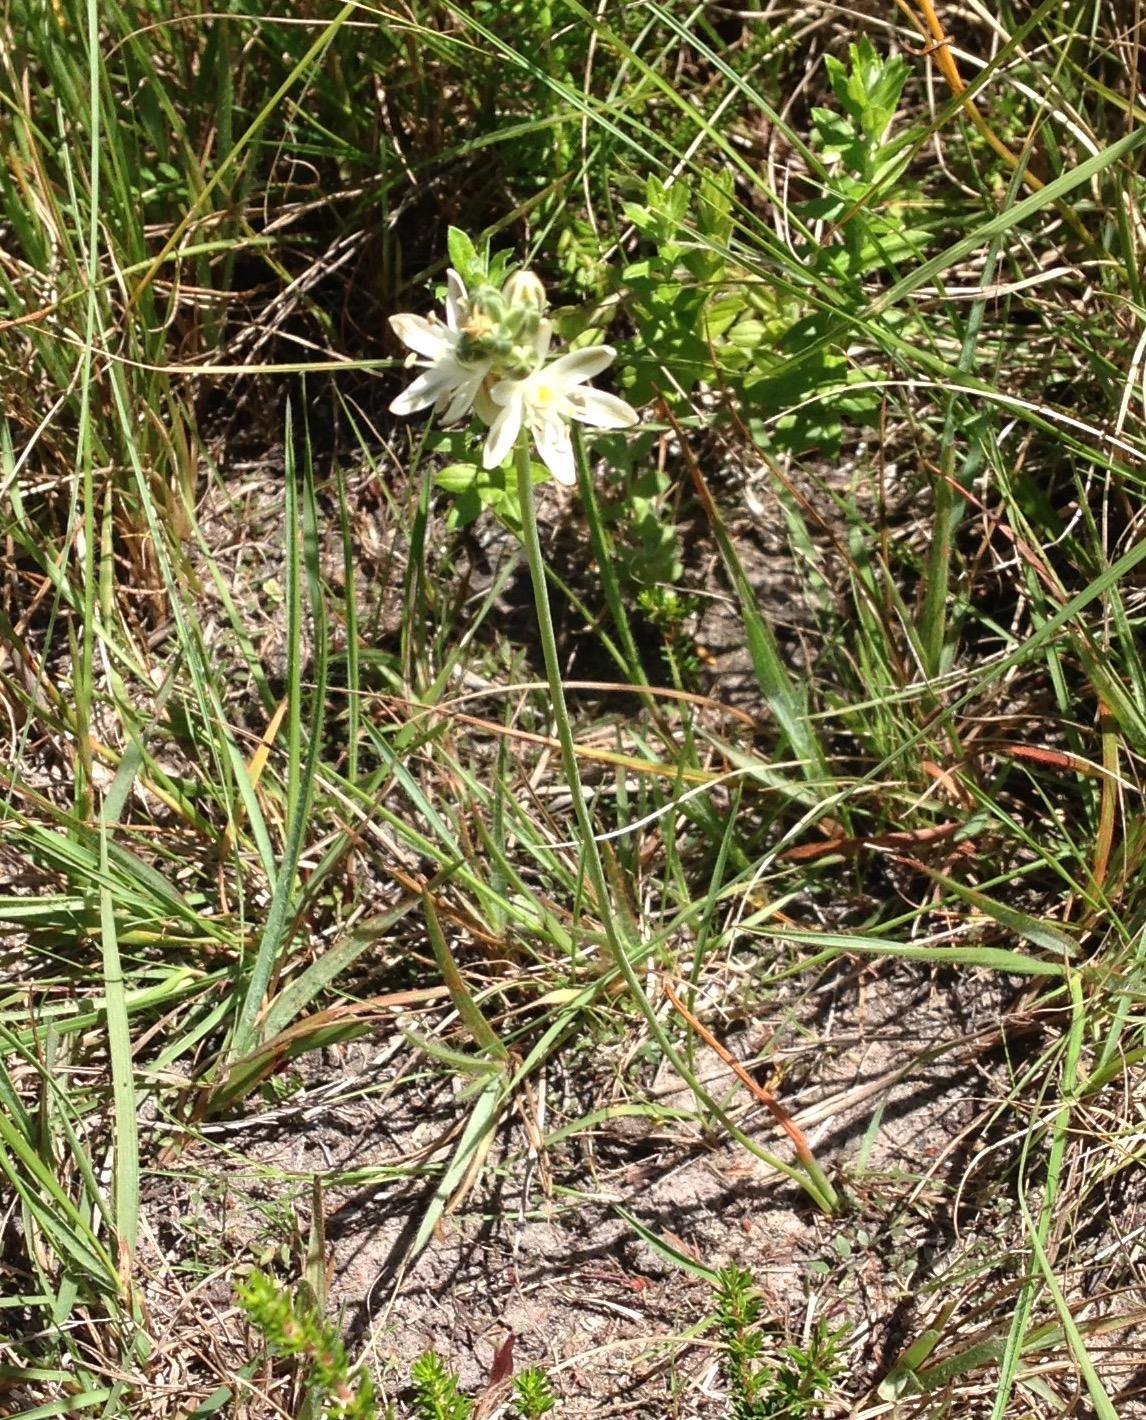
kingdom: Plantae
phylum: Tracheophyta
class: Liliopsida
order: Asparagales
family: Asparagaceae
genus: Albuca
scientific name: Albuca virens
